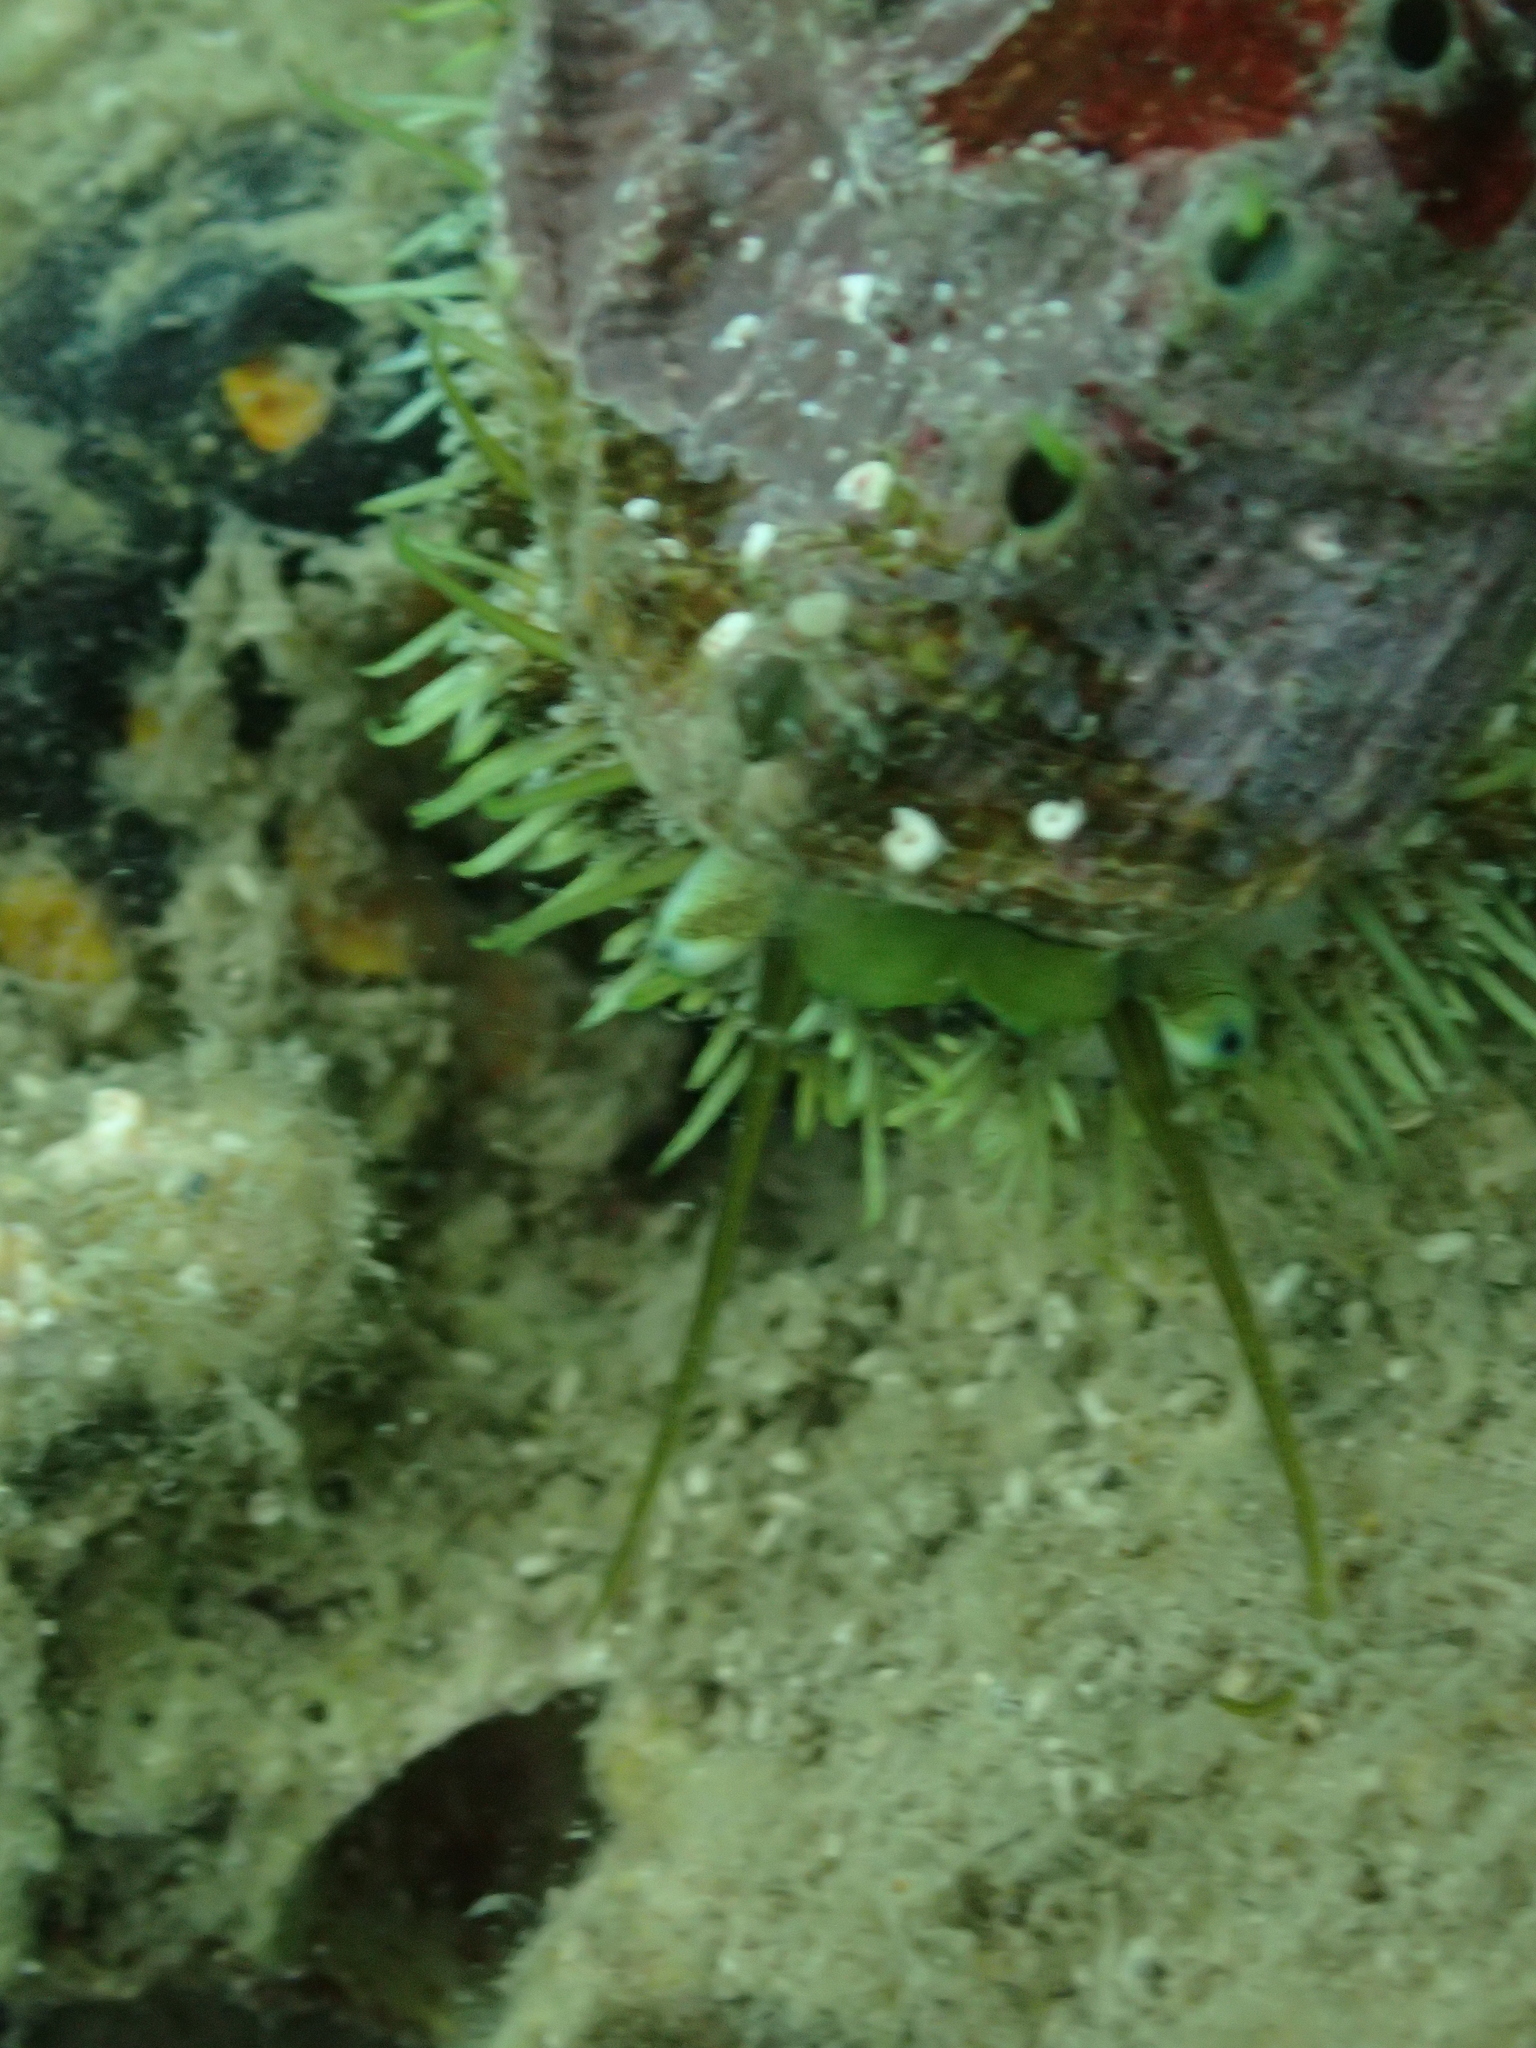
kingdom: Animalia
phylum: Mollusca
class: Gastropoda
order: Lepetellida
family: Haliotidae
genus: Haliotis
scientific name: Haliotis tuberculata
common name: Green ormer
